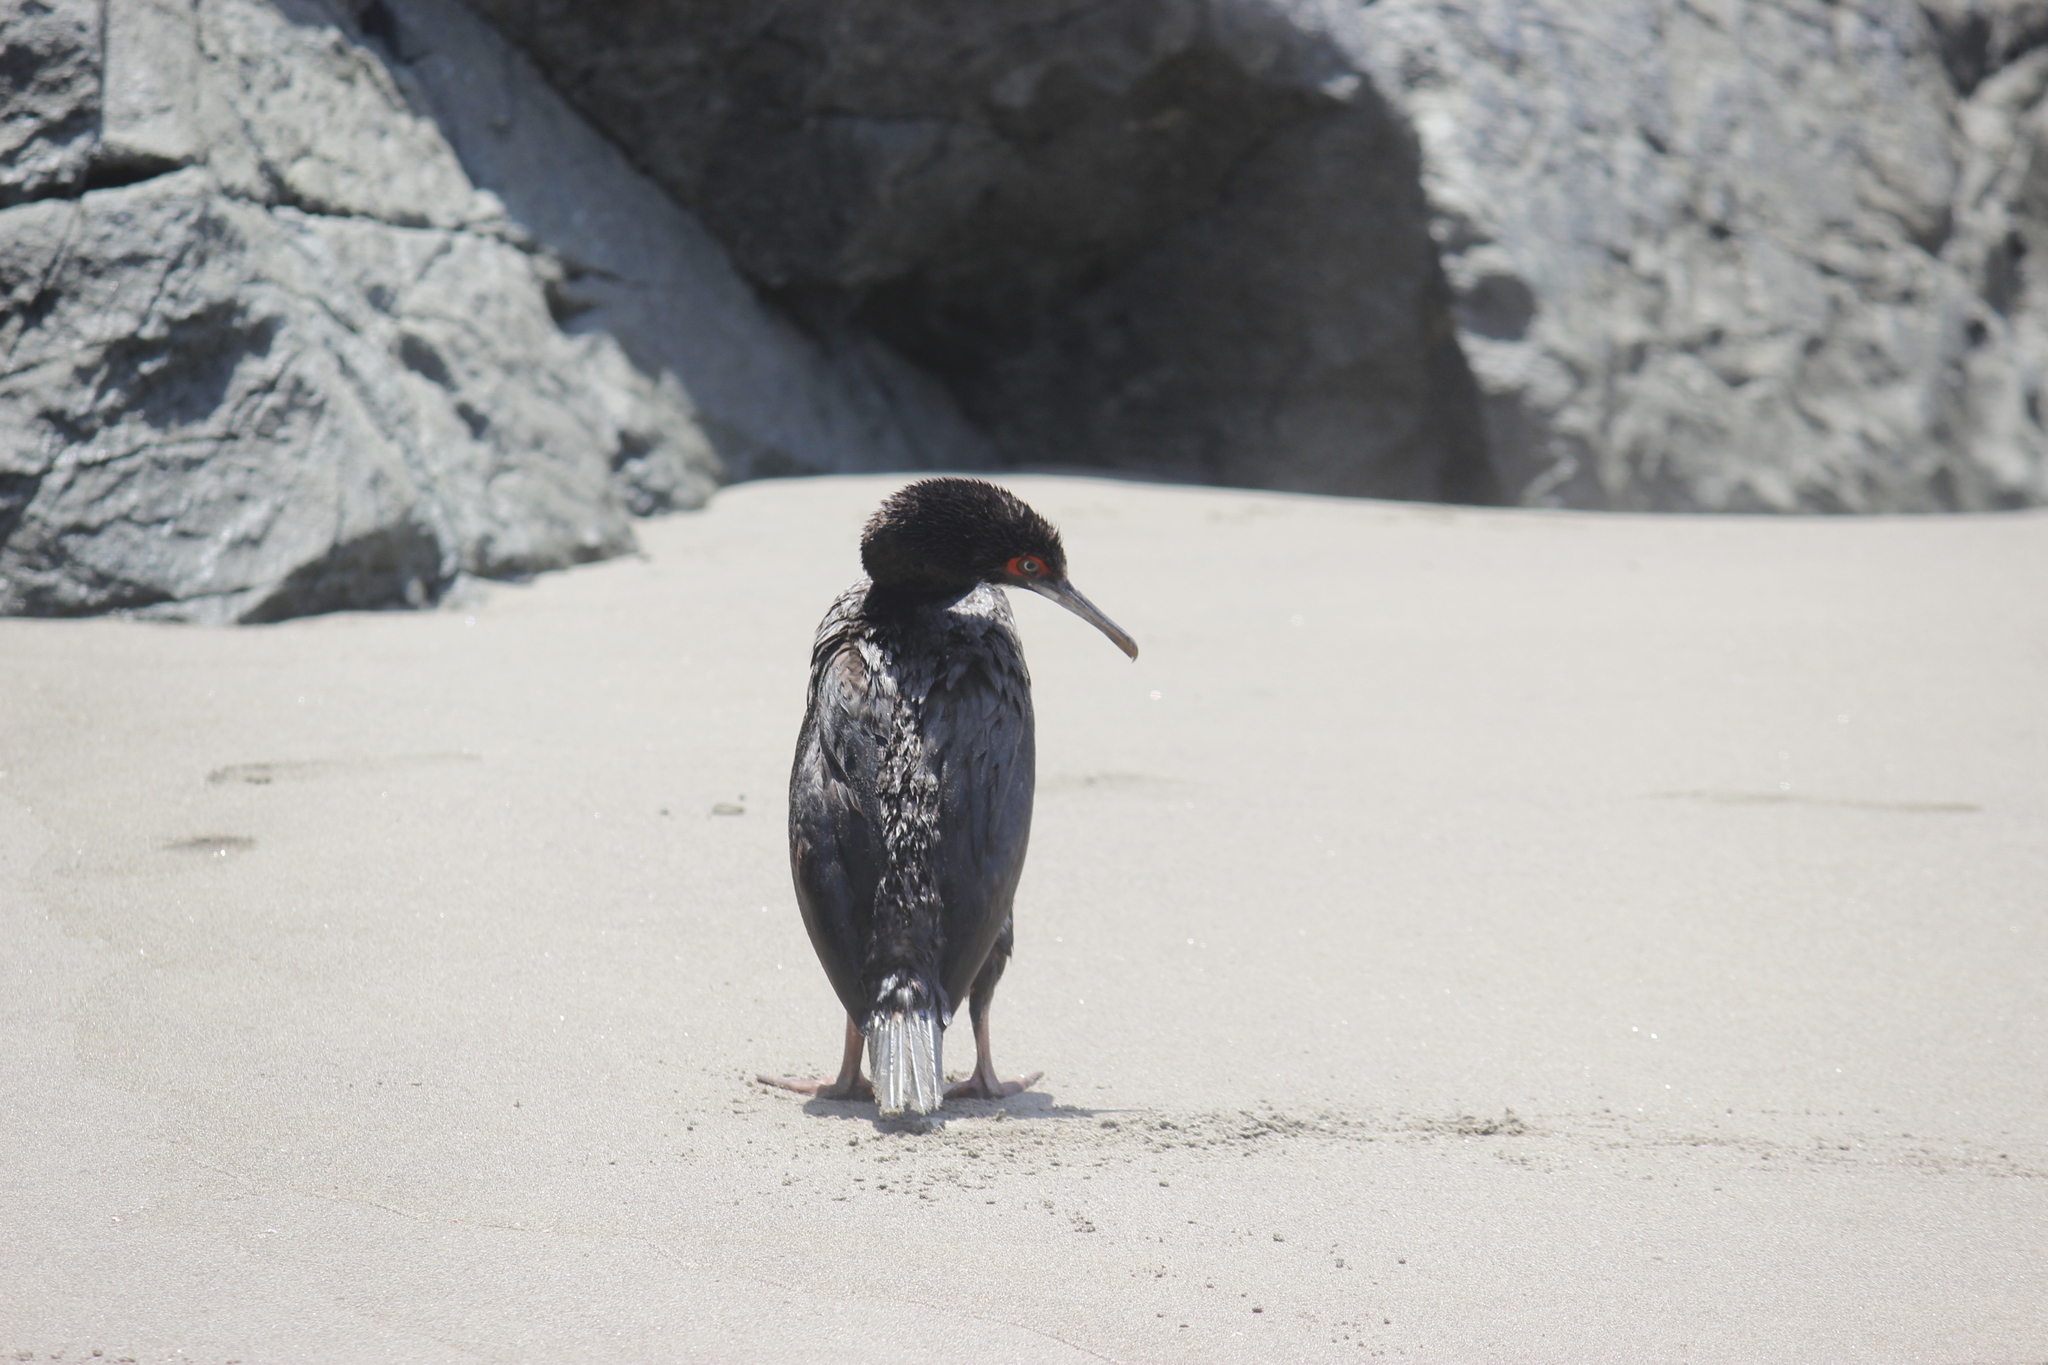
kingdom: Animalia
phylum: Chordata
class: Aves
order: Suliformes
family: Phalacrocoracidae
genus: Leucocarbo
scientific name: Leucocarbo bougainvillii
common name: Guanay cormorant
